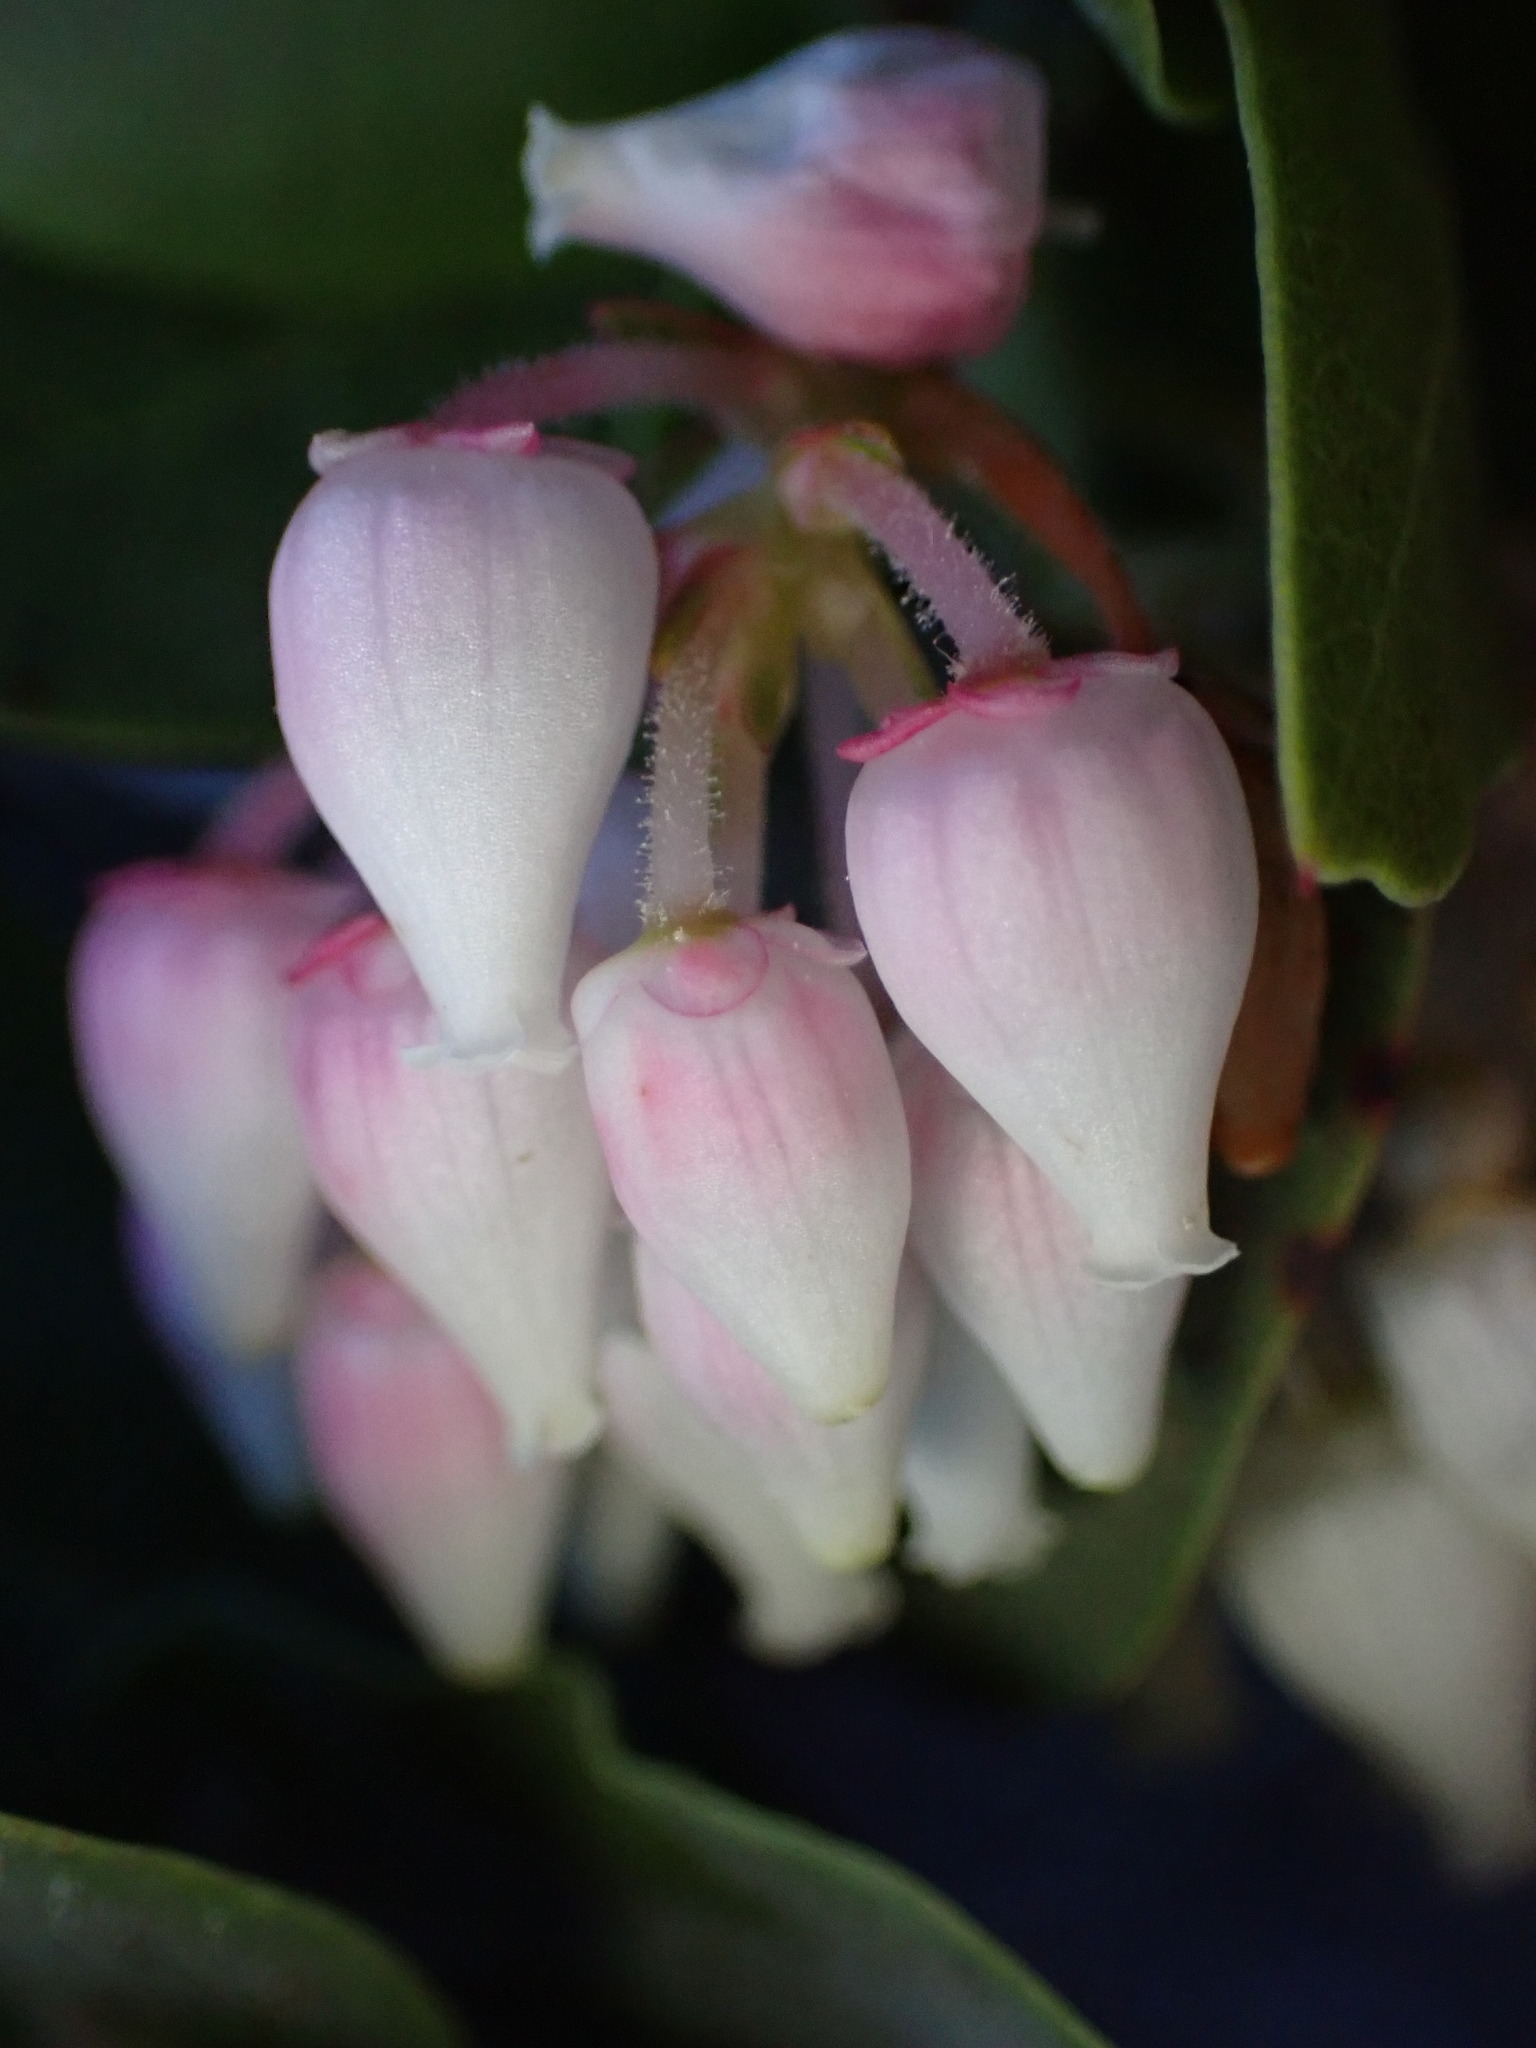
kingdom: Plantae
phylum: Tracheophyta
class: Magnoliopsida
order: Ericales
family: Ericaceae
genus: Arctostaphylos
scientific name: Arctostaphylos pallida
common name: Pallid manzanita
